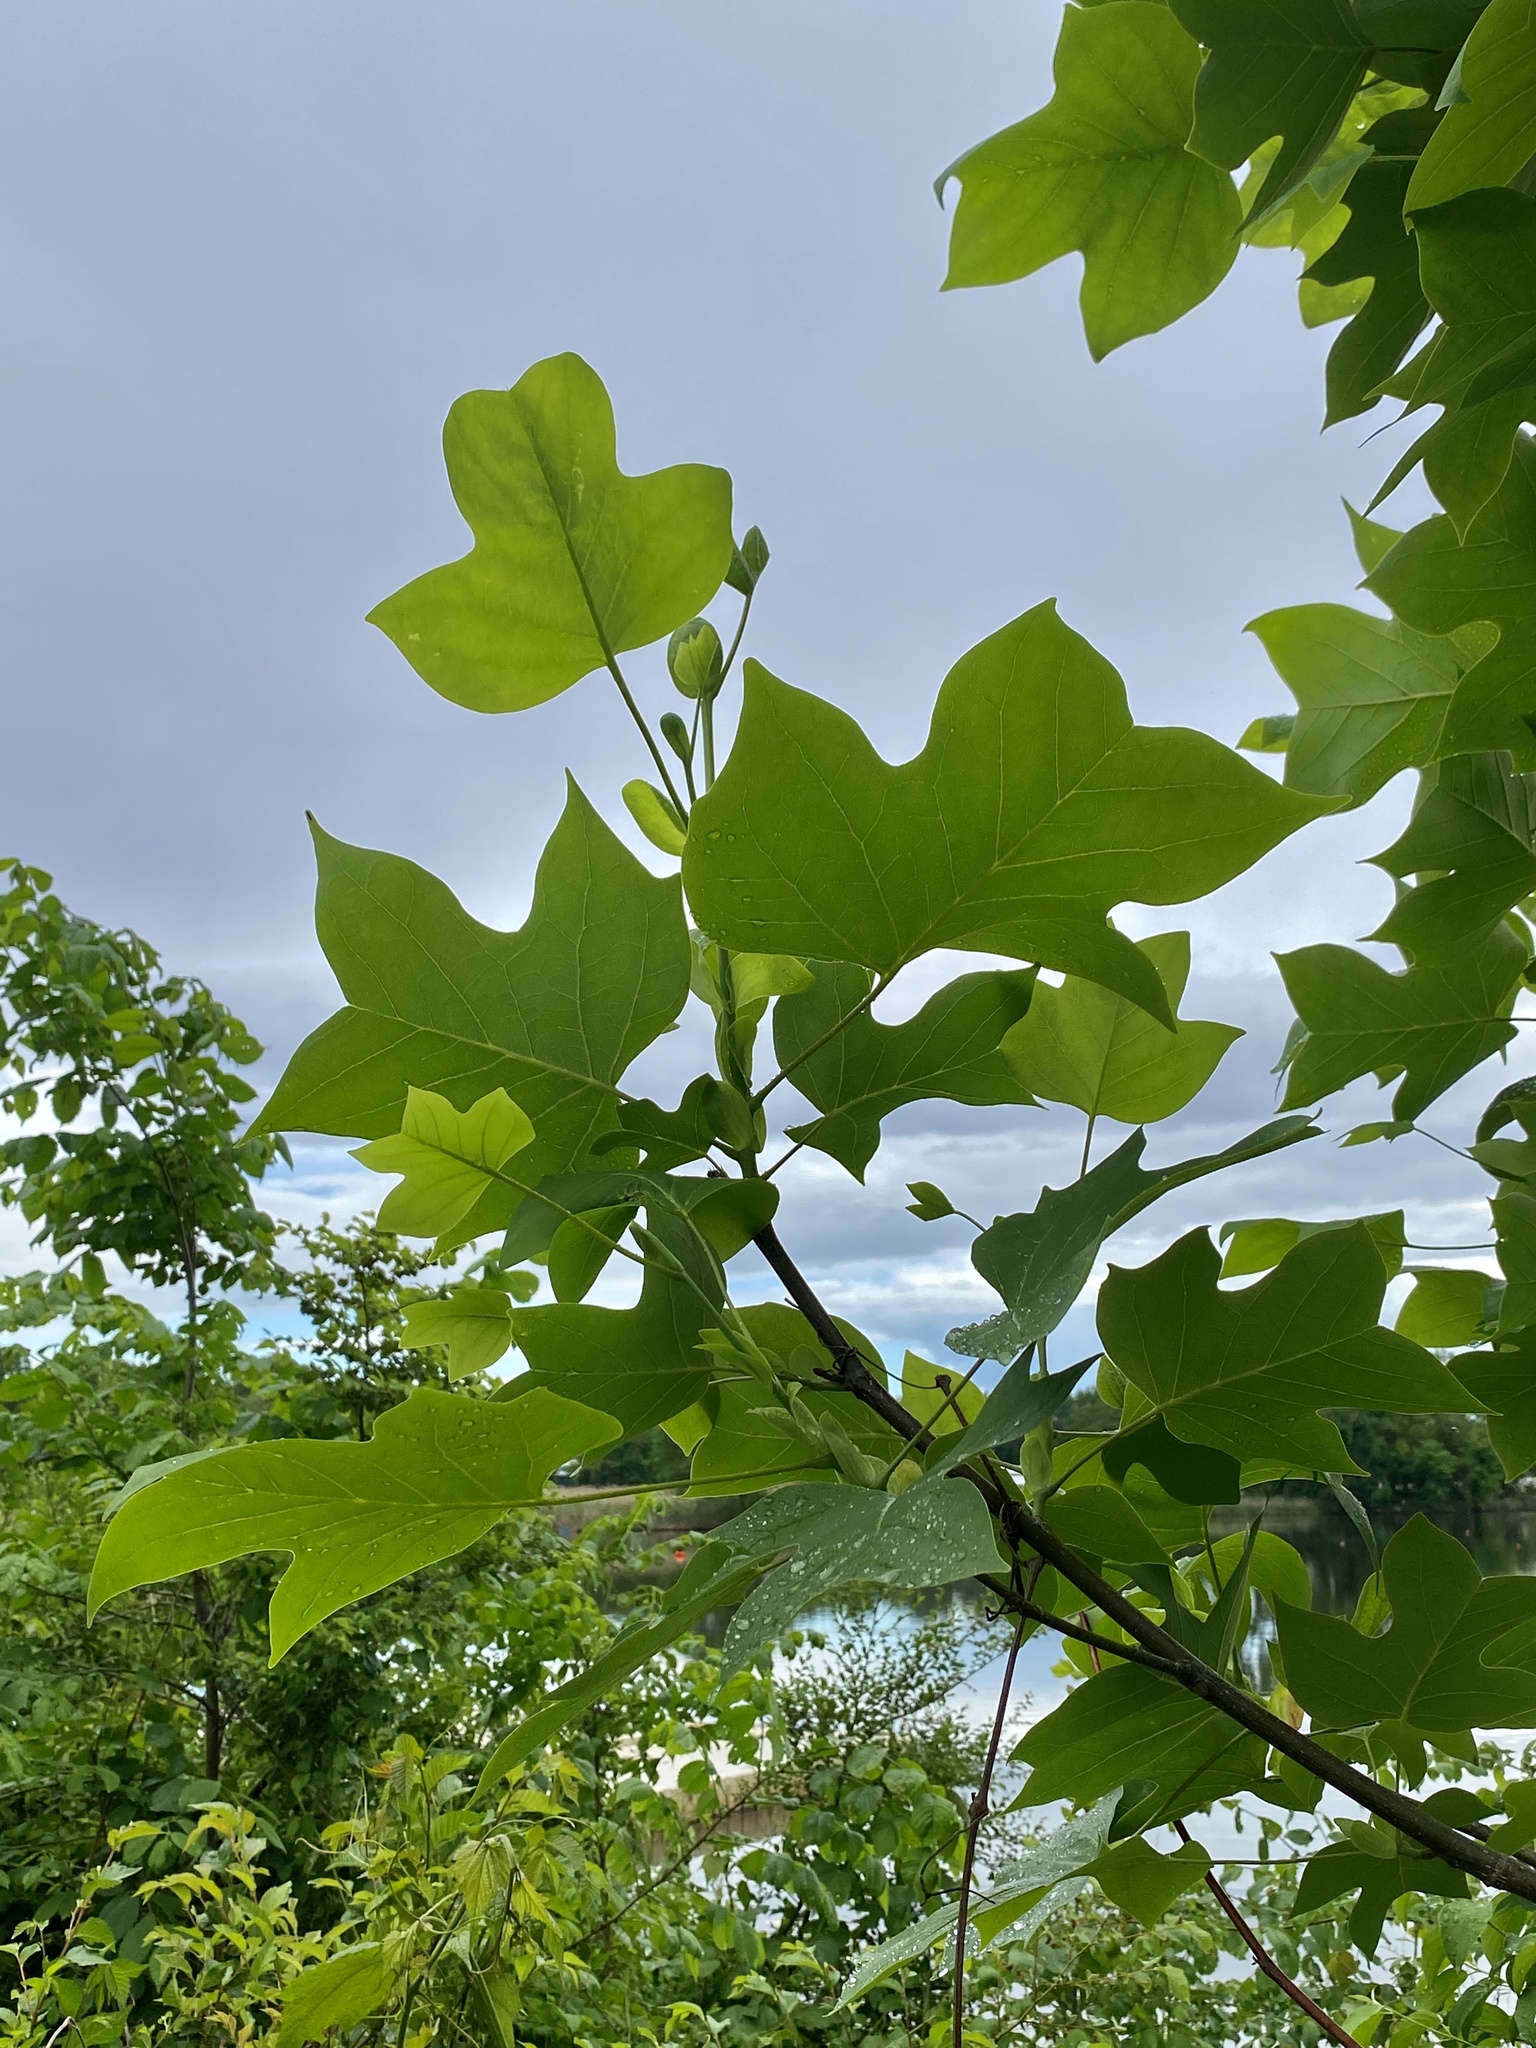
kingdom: Plantae
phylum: Tracheophyta
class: Magnoliopsida
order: Magnoliales
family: Magnoliaceae
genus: Liriodendron
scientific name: Liriodendron tulipifera
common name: Tulip tree
